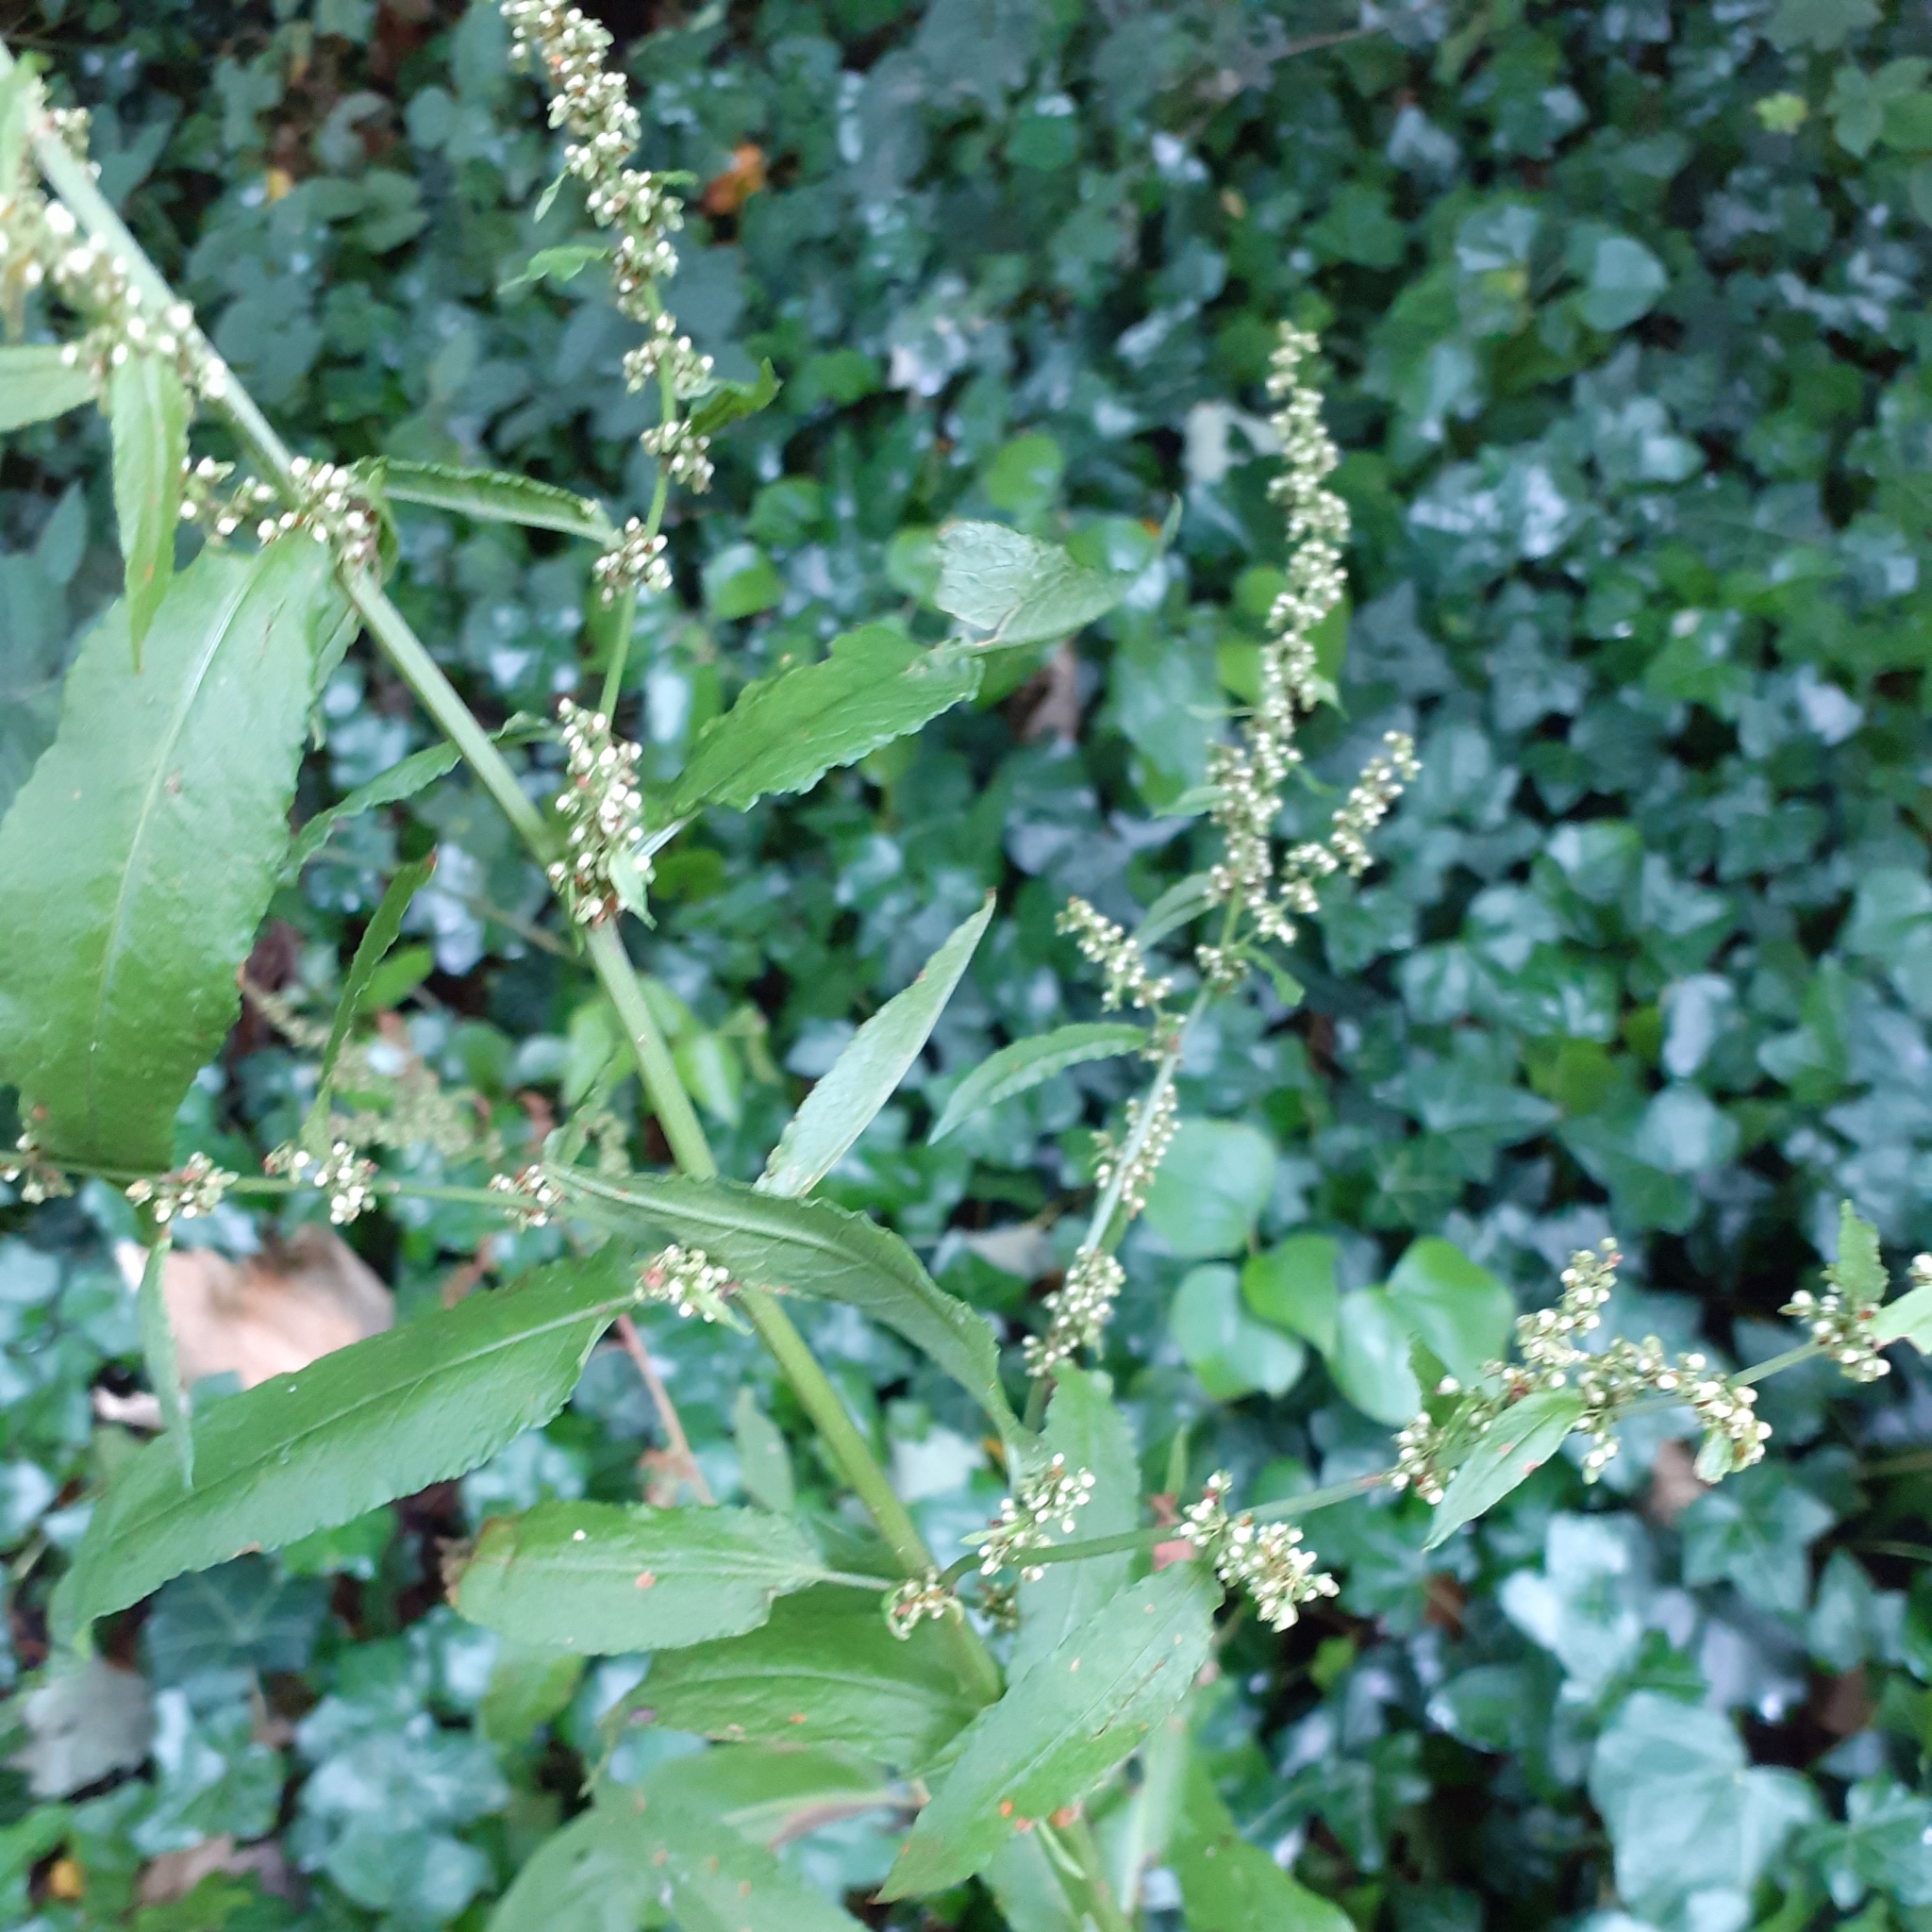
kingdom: Plantae
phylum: Tracheophyta
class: Magnoliopsida
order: Caryophyllales
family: Polygonaceae
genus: Rumex
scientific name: Rumex sanguineus
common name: Wood dock
